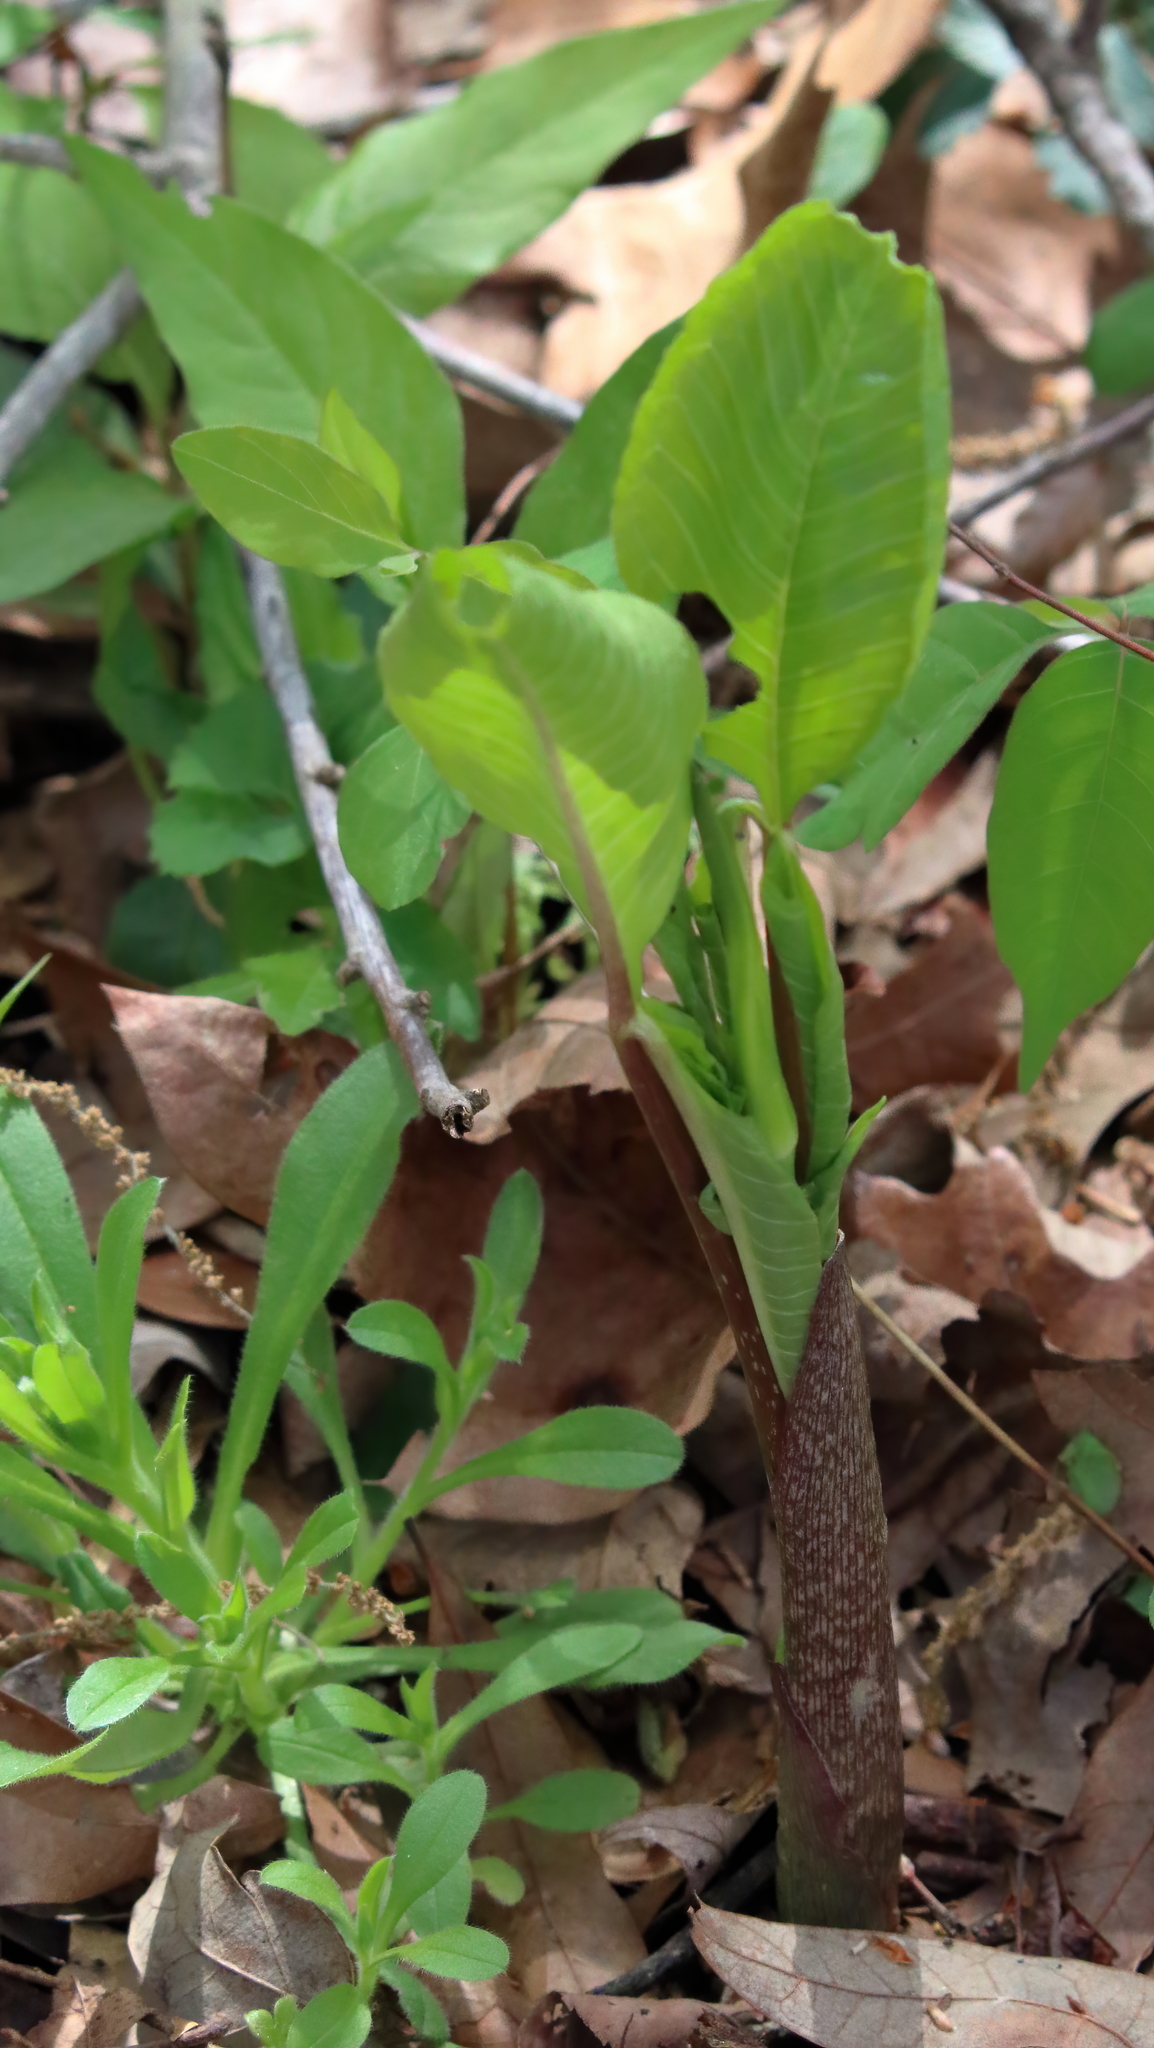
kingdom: Plantae
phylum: Tracheophyta
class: Liliopsida
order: Alismatales
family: Araceae
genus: Arisaema
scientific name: Arisaema triphyllum
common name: Jack-in-the-pulpit
